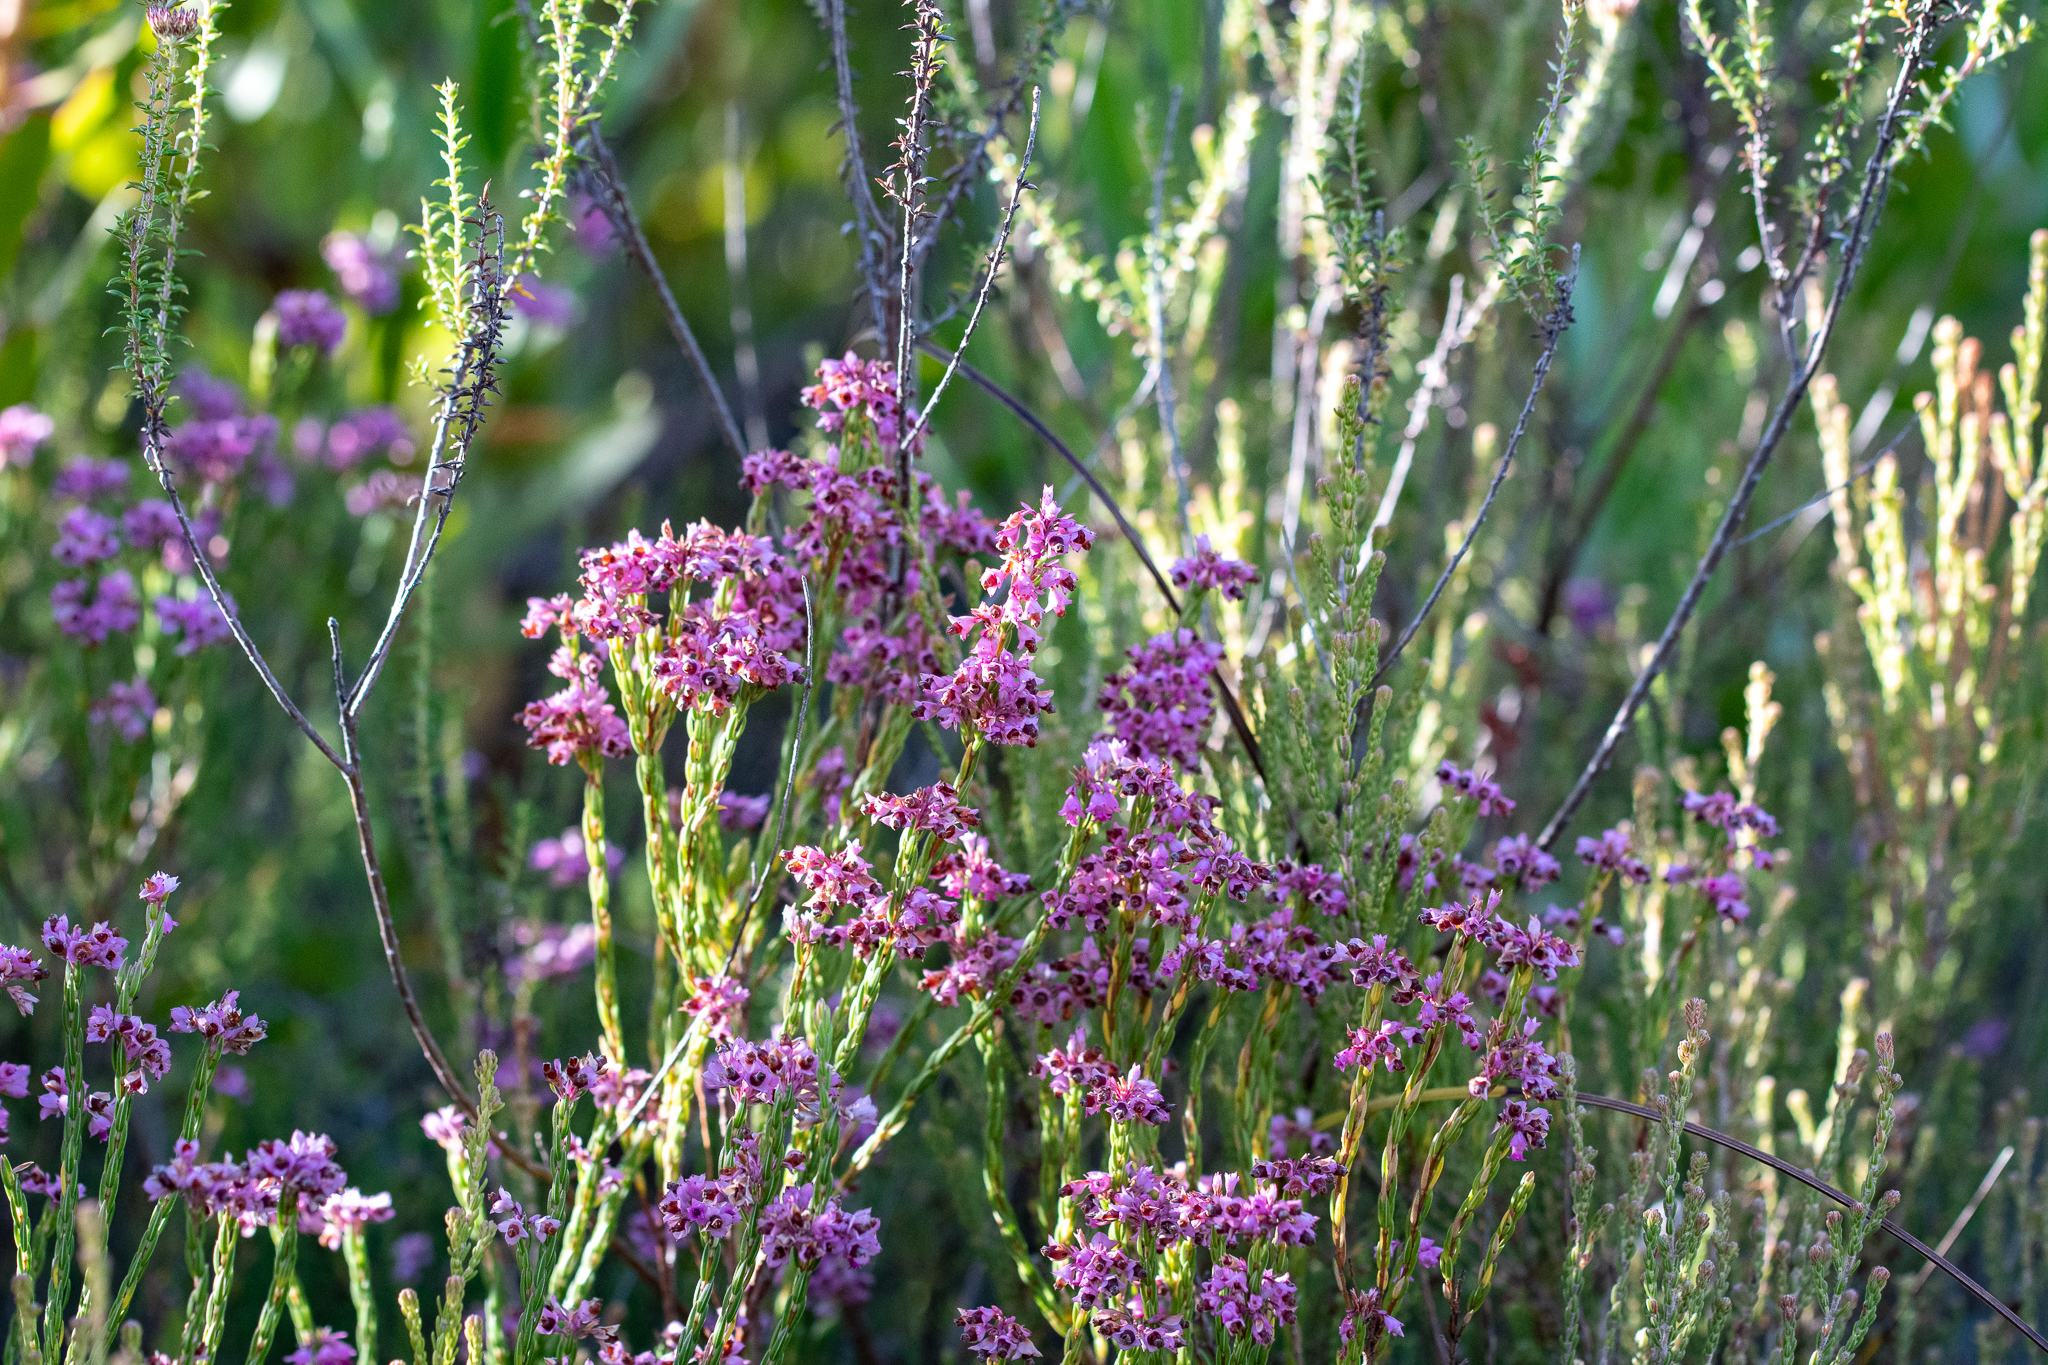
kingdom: Plantae
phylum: Tracheophyta
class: Magnoliopsida
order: Ericales
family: Ericaceae
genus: Erica
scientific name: Erica corifolia
